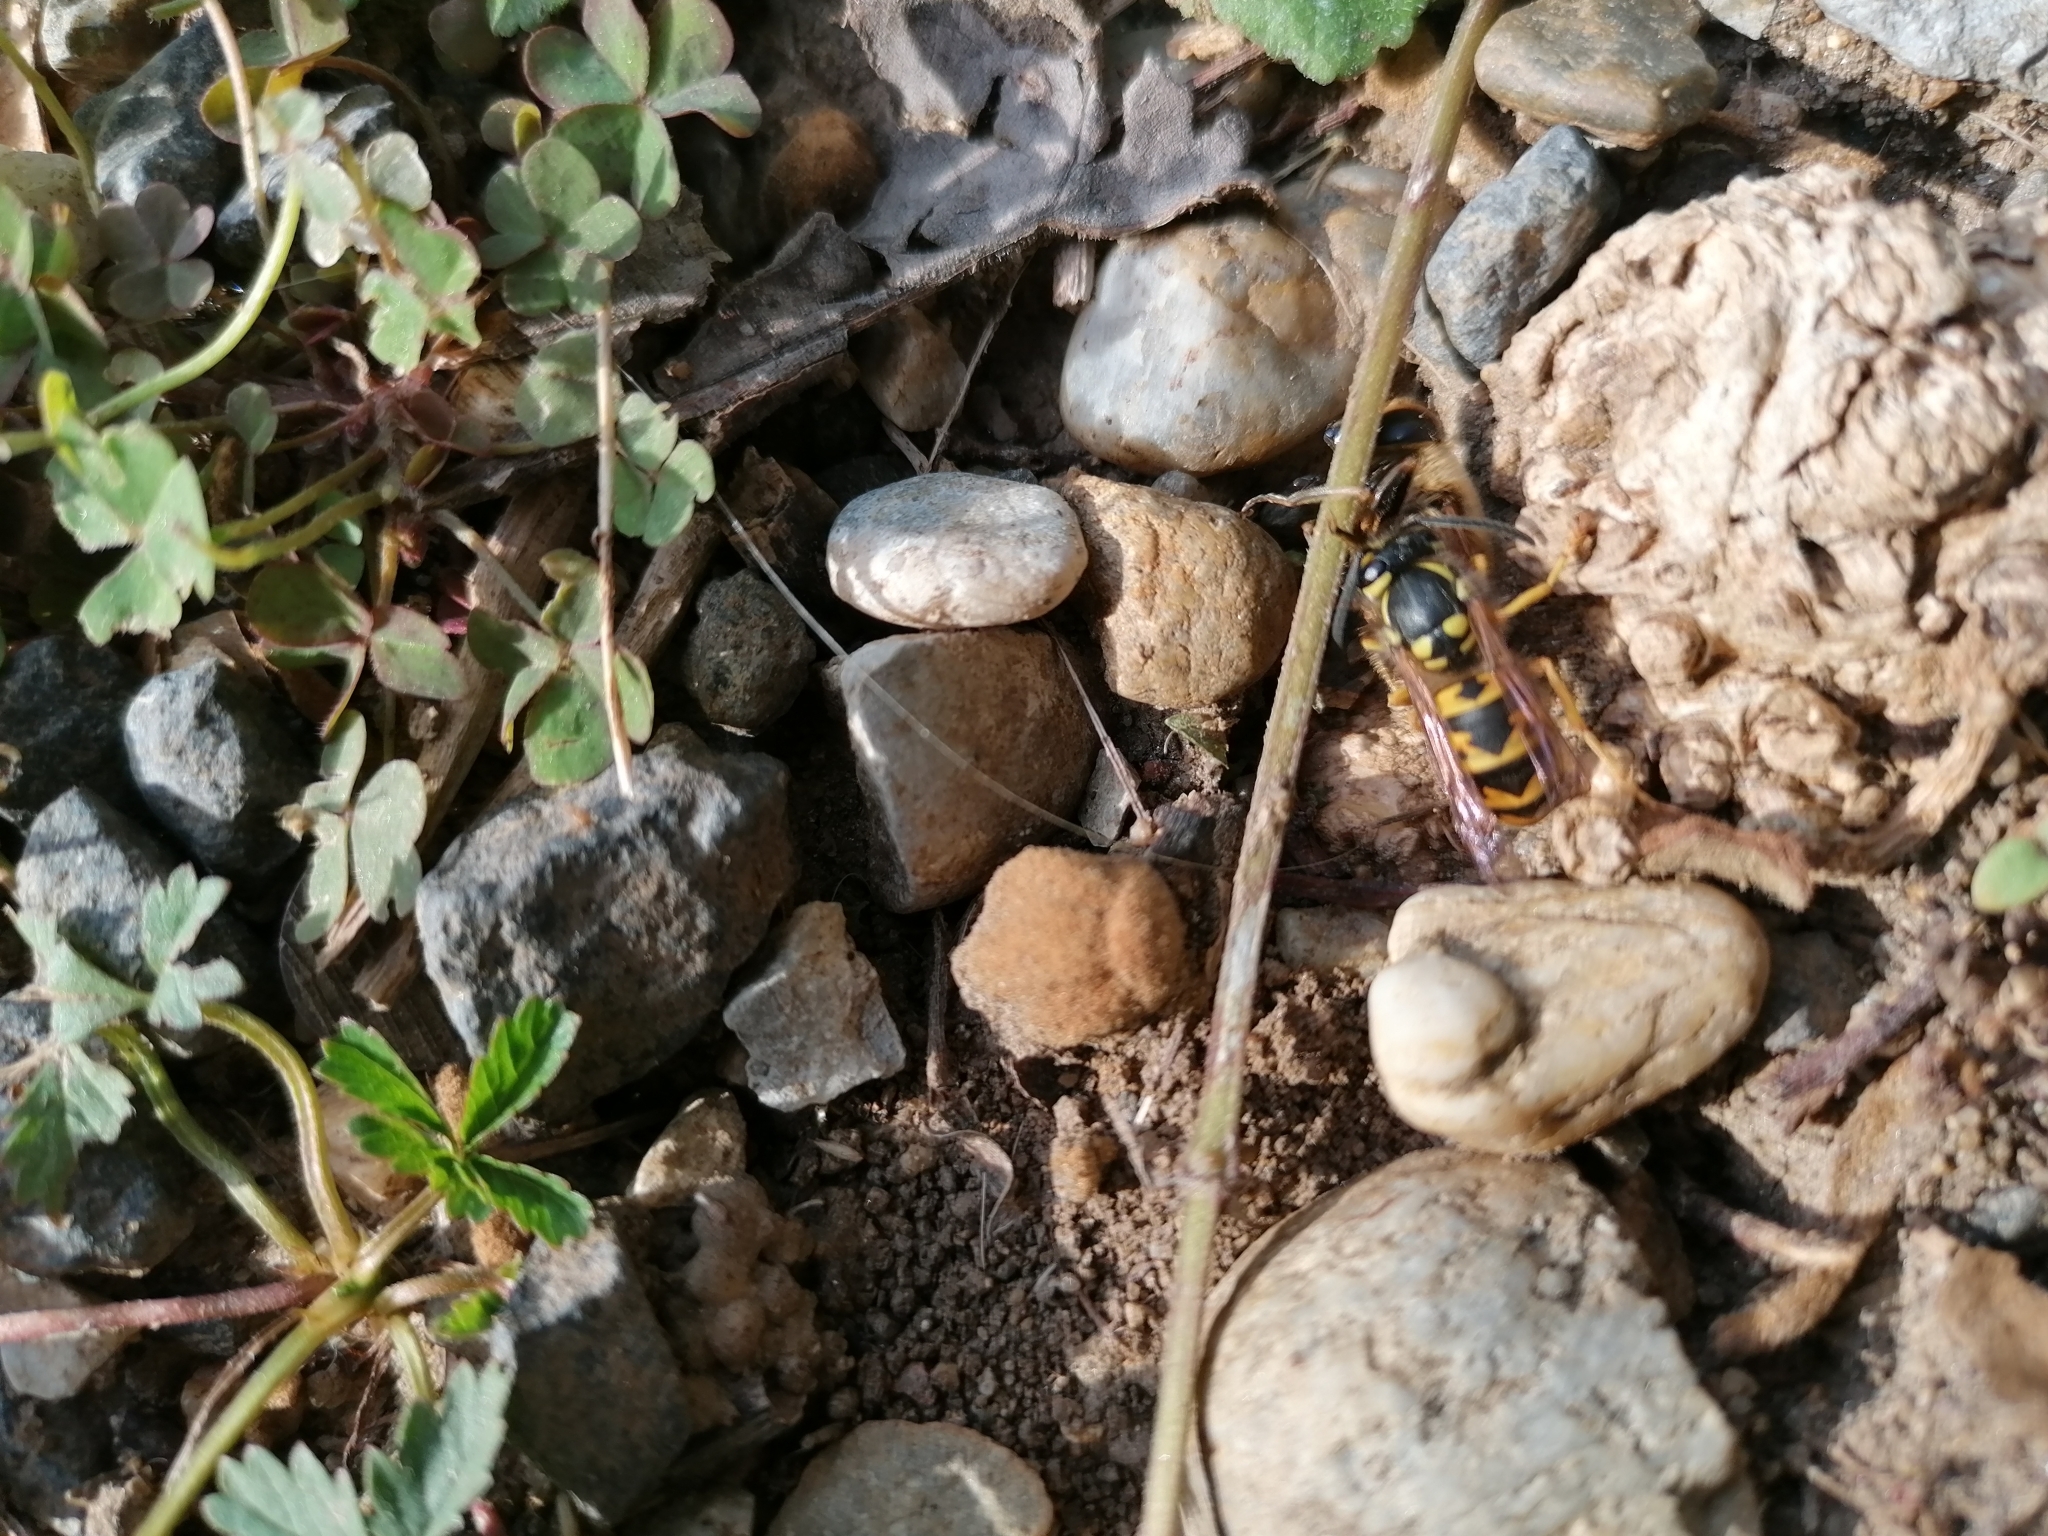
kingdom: Animalia
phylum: Arthropoda
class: Insecta
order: Hymenoptera
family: Vespidae
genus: Vespula
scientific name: Vespula germanica
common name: German wasp
